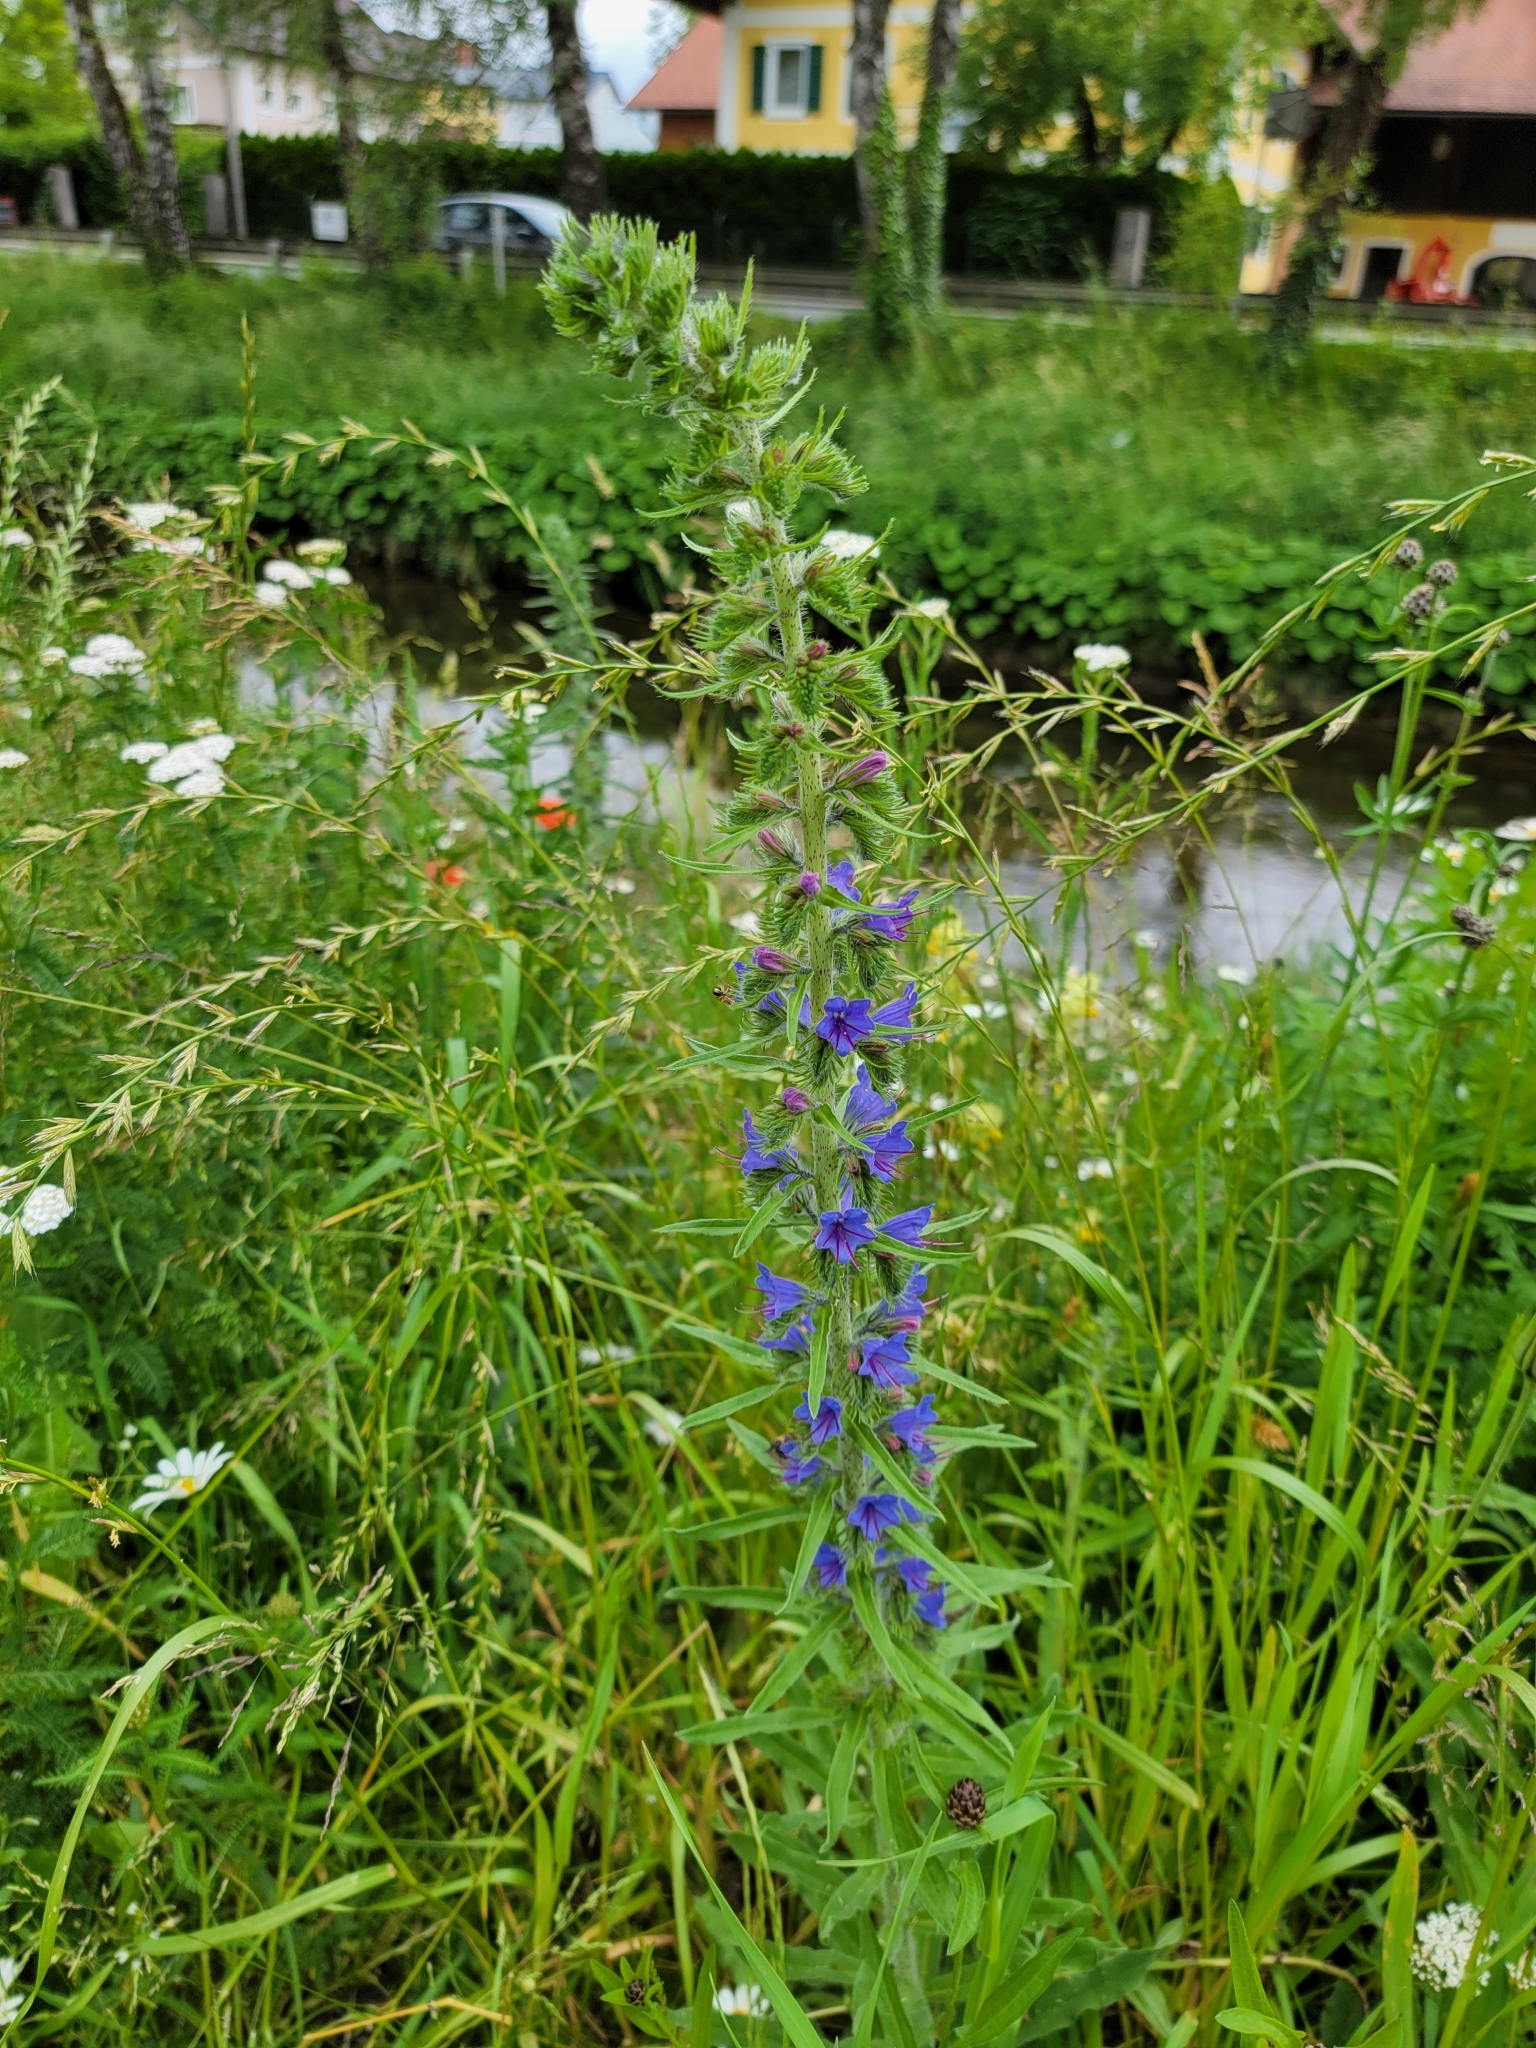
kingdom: Plantae
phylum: Tracheophyta
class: Magnoliopsida
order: Boraginales
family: Boraginaceae
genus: Echium
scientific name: Echium vulgare
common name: Common viper's bugloss
